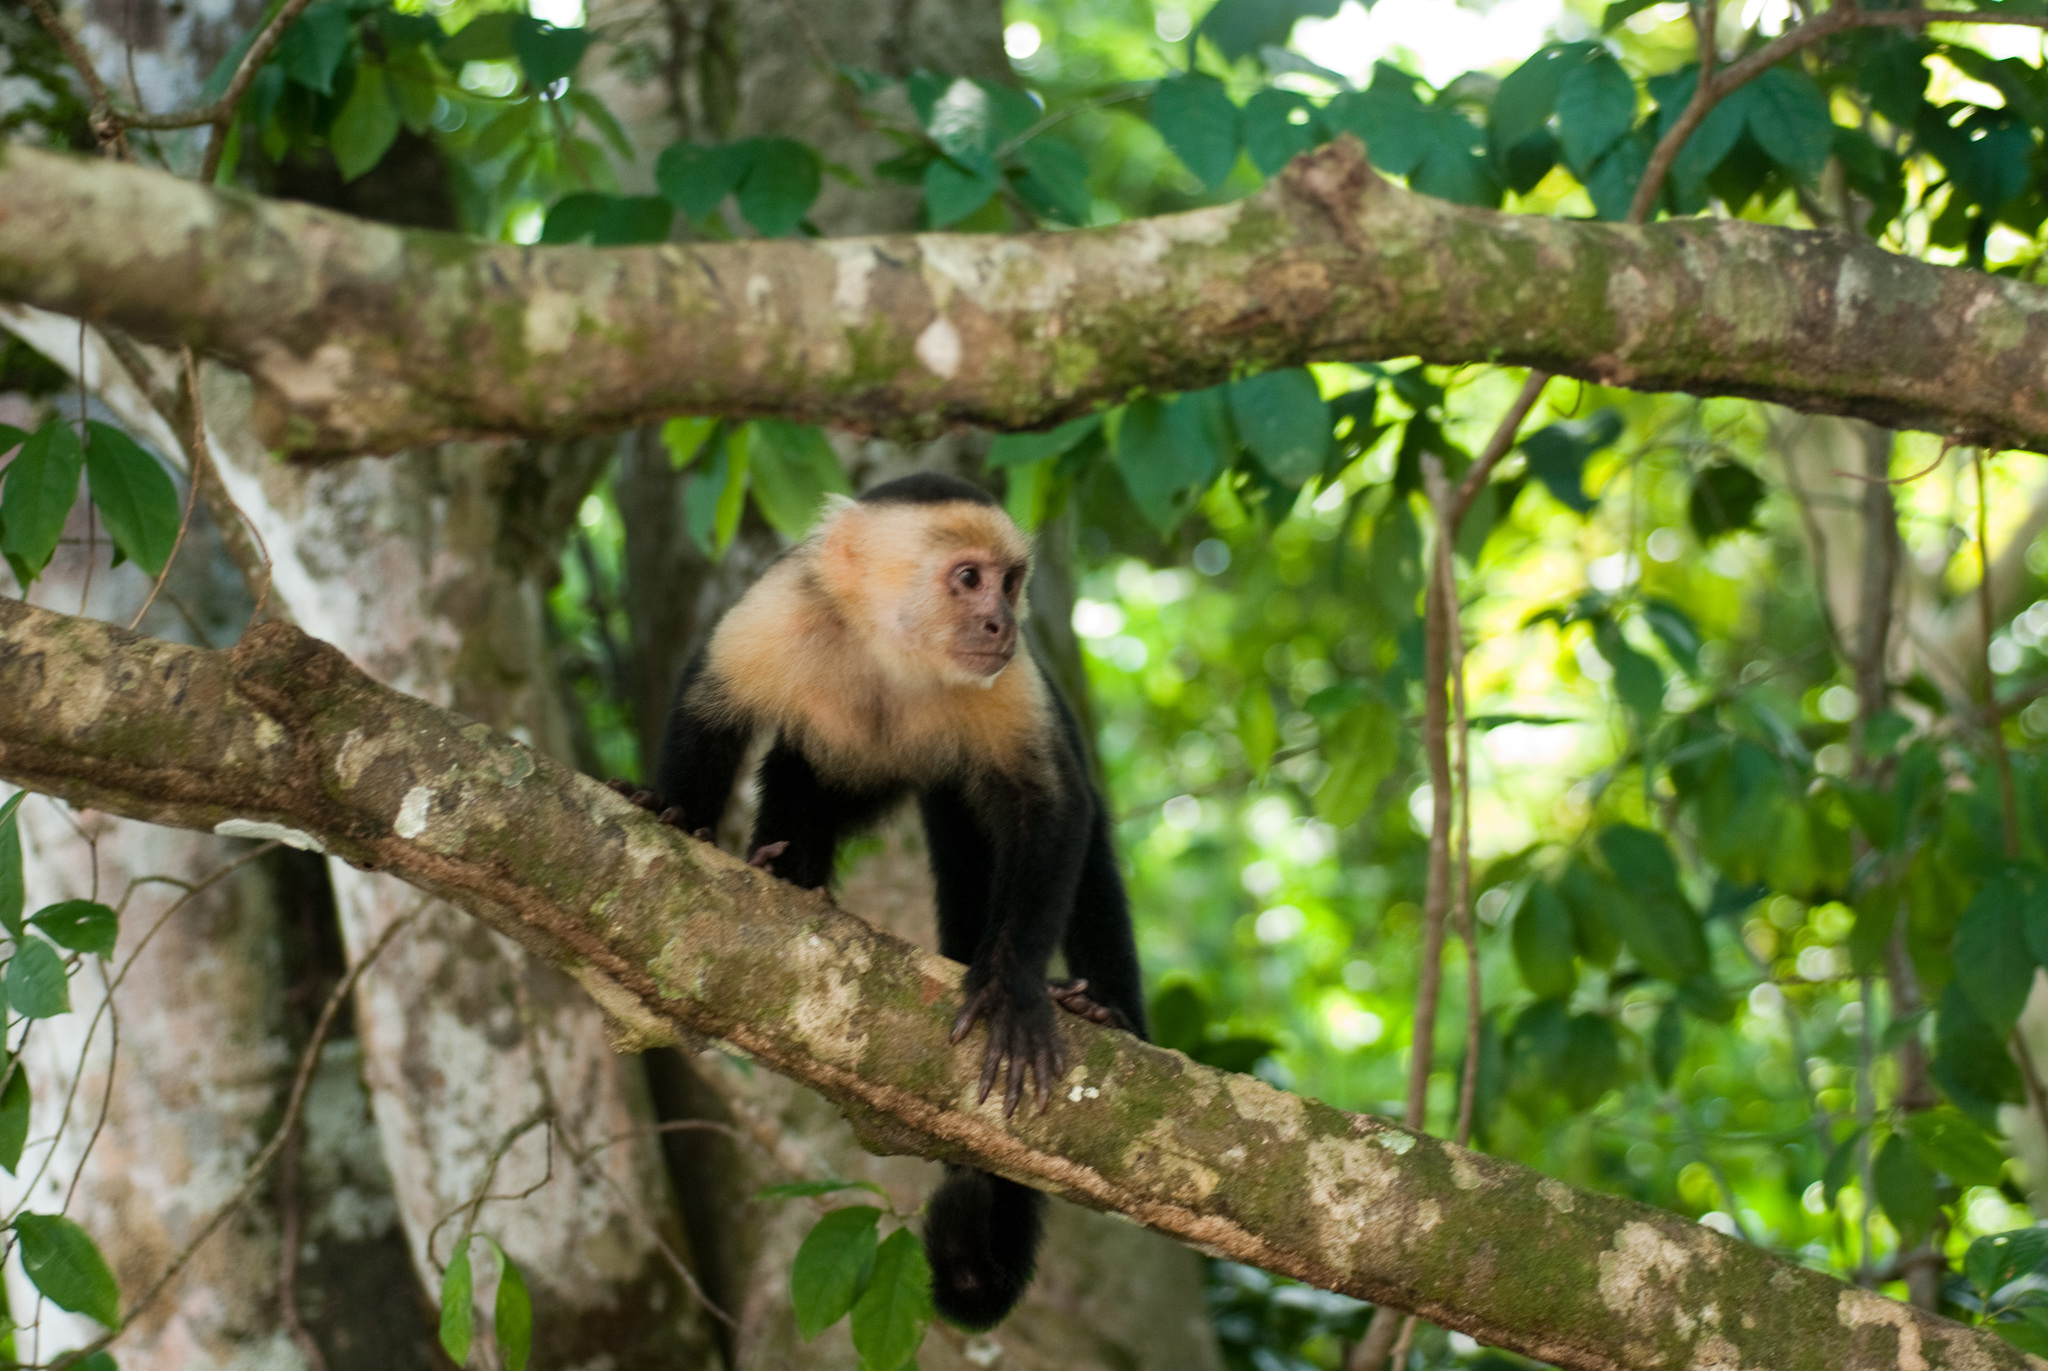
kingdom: Animalia
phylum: Chordata
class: Mammalia
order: Primates
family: Cebidae
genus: Cebus
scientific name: Cebus imitator
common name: Panamanian white-faced capuchin
